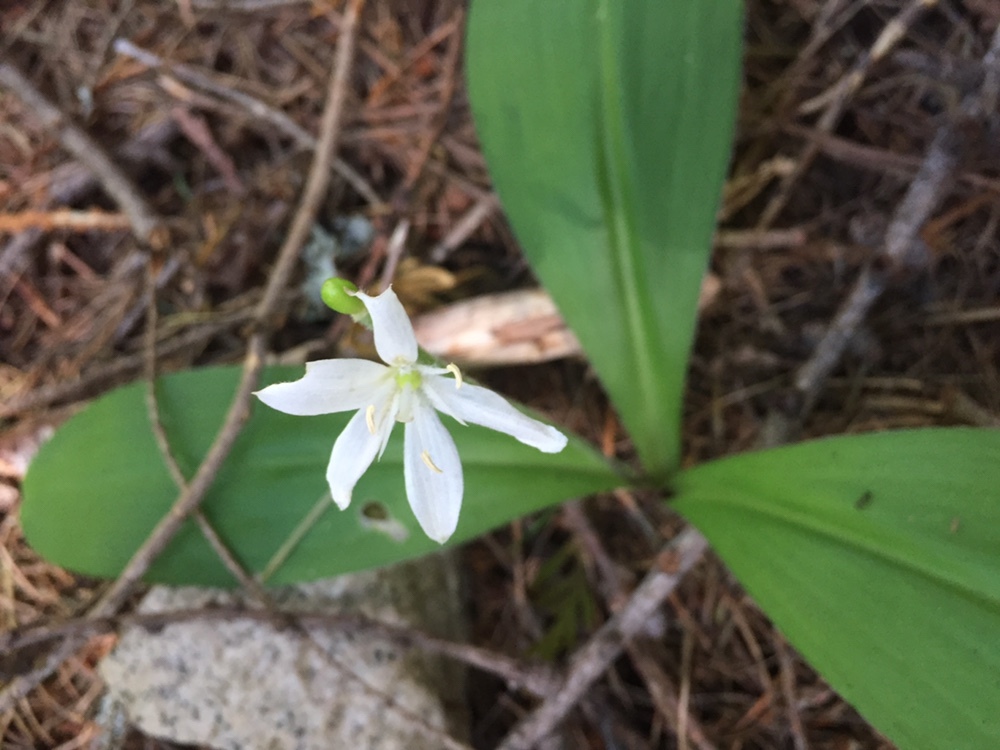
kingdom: Plantae
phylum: Tracheophyta
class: Liliopsida
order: Liliales
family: Liliaceae
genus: Clintonia
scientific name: Clintonia uniflora
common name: Queen's cup
